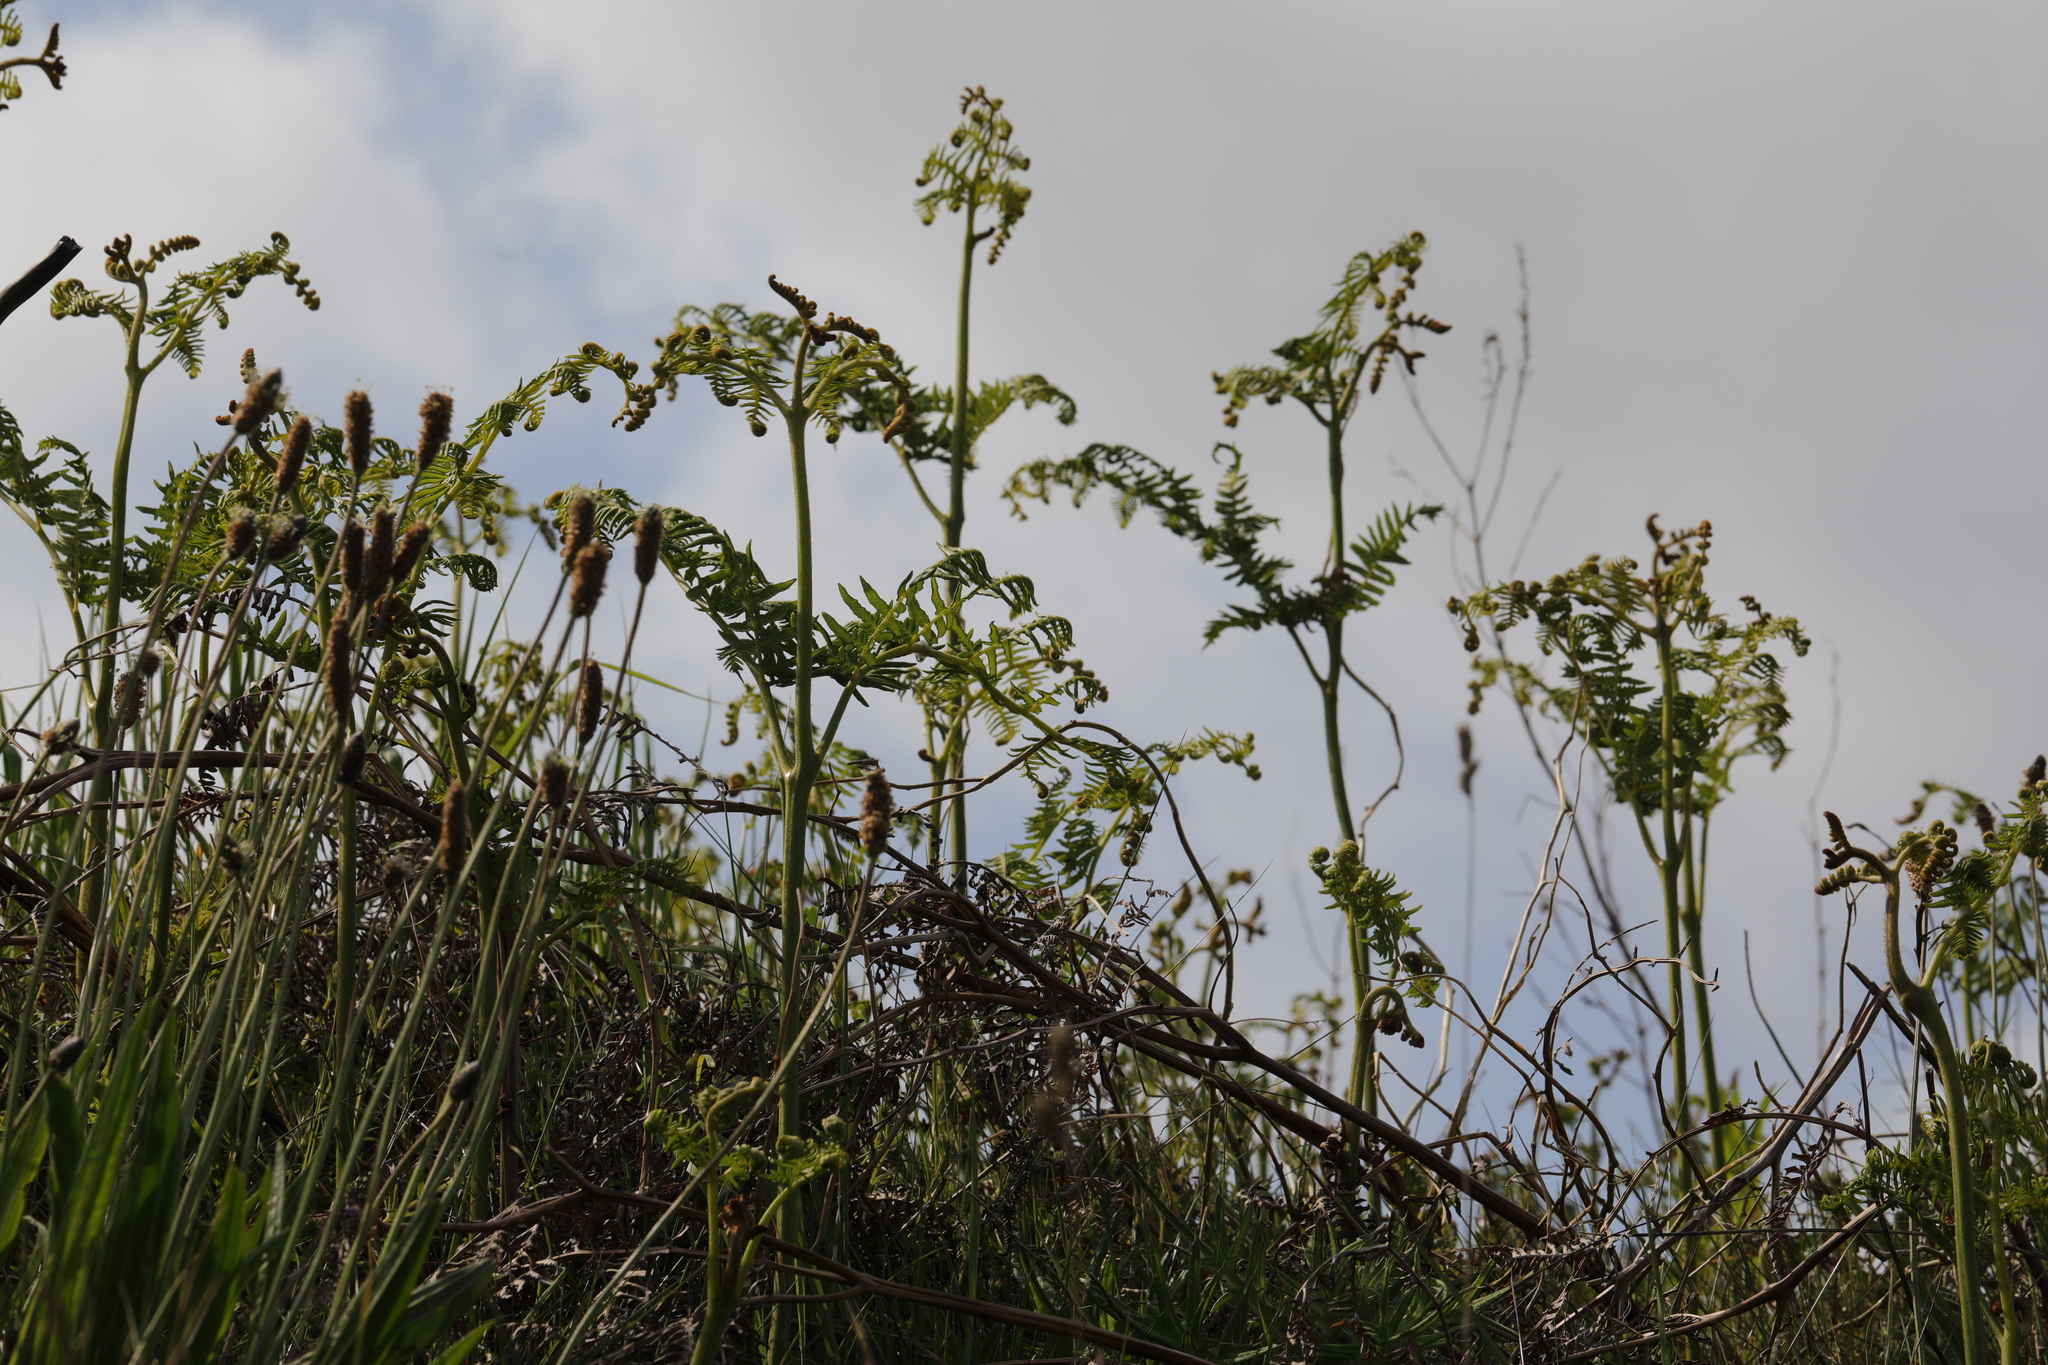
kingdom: Plantae
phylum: Tracheophyta
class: Polypodiopsida
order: Polypodiales
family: Dennstaedtiaceae
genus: Pteridium
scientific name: Pteridium aquilinum
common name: Bracken
